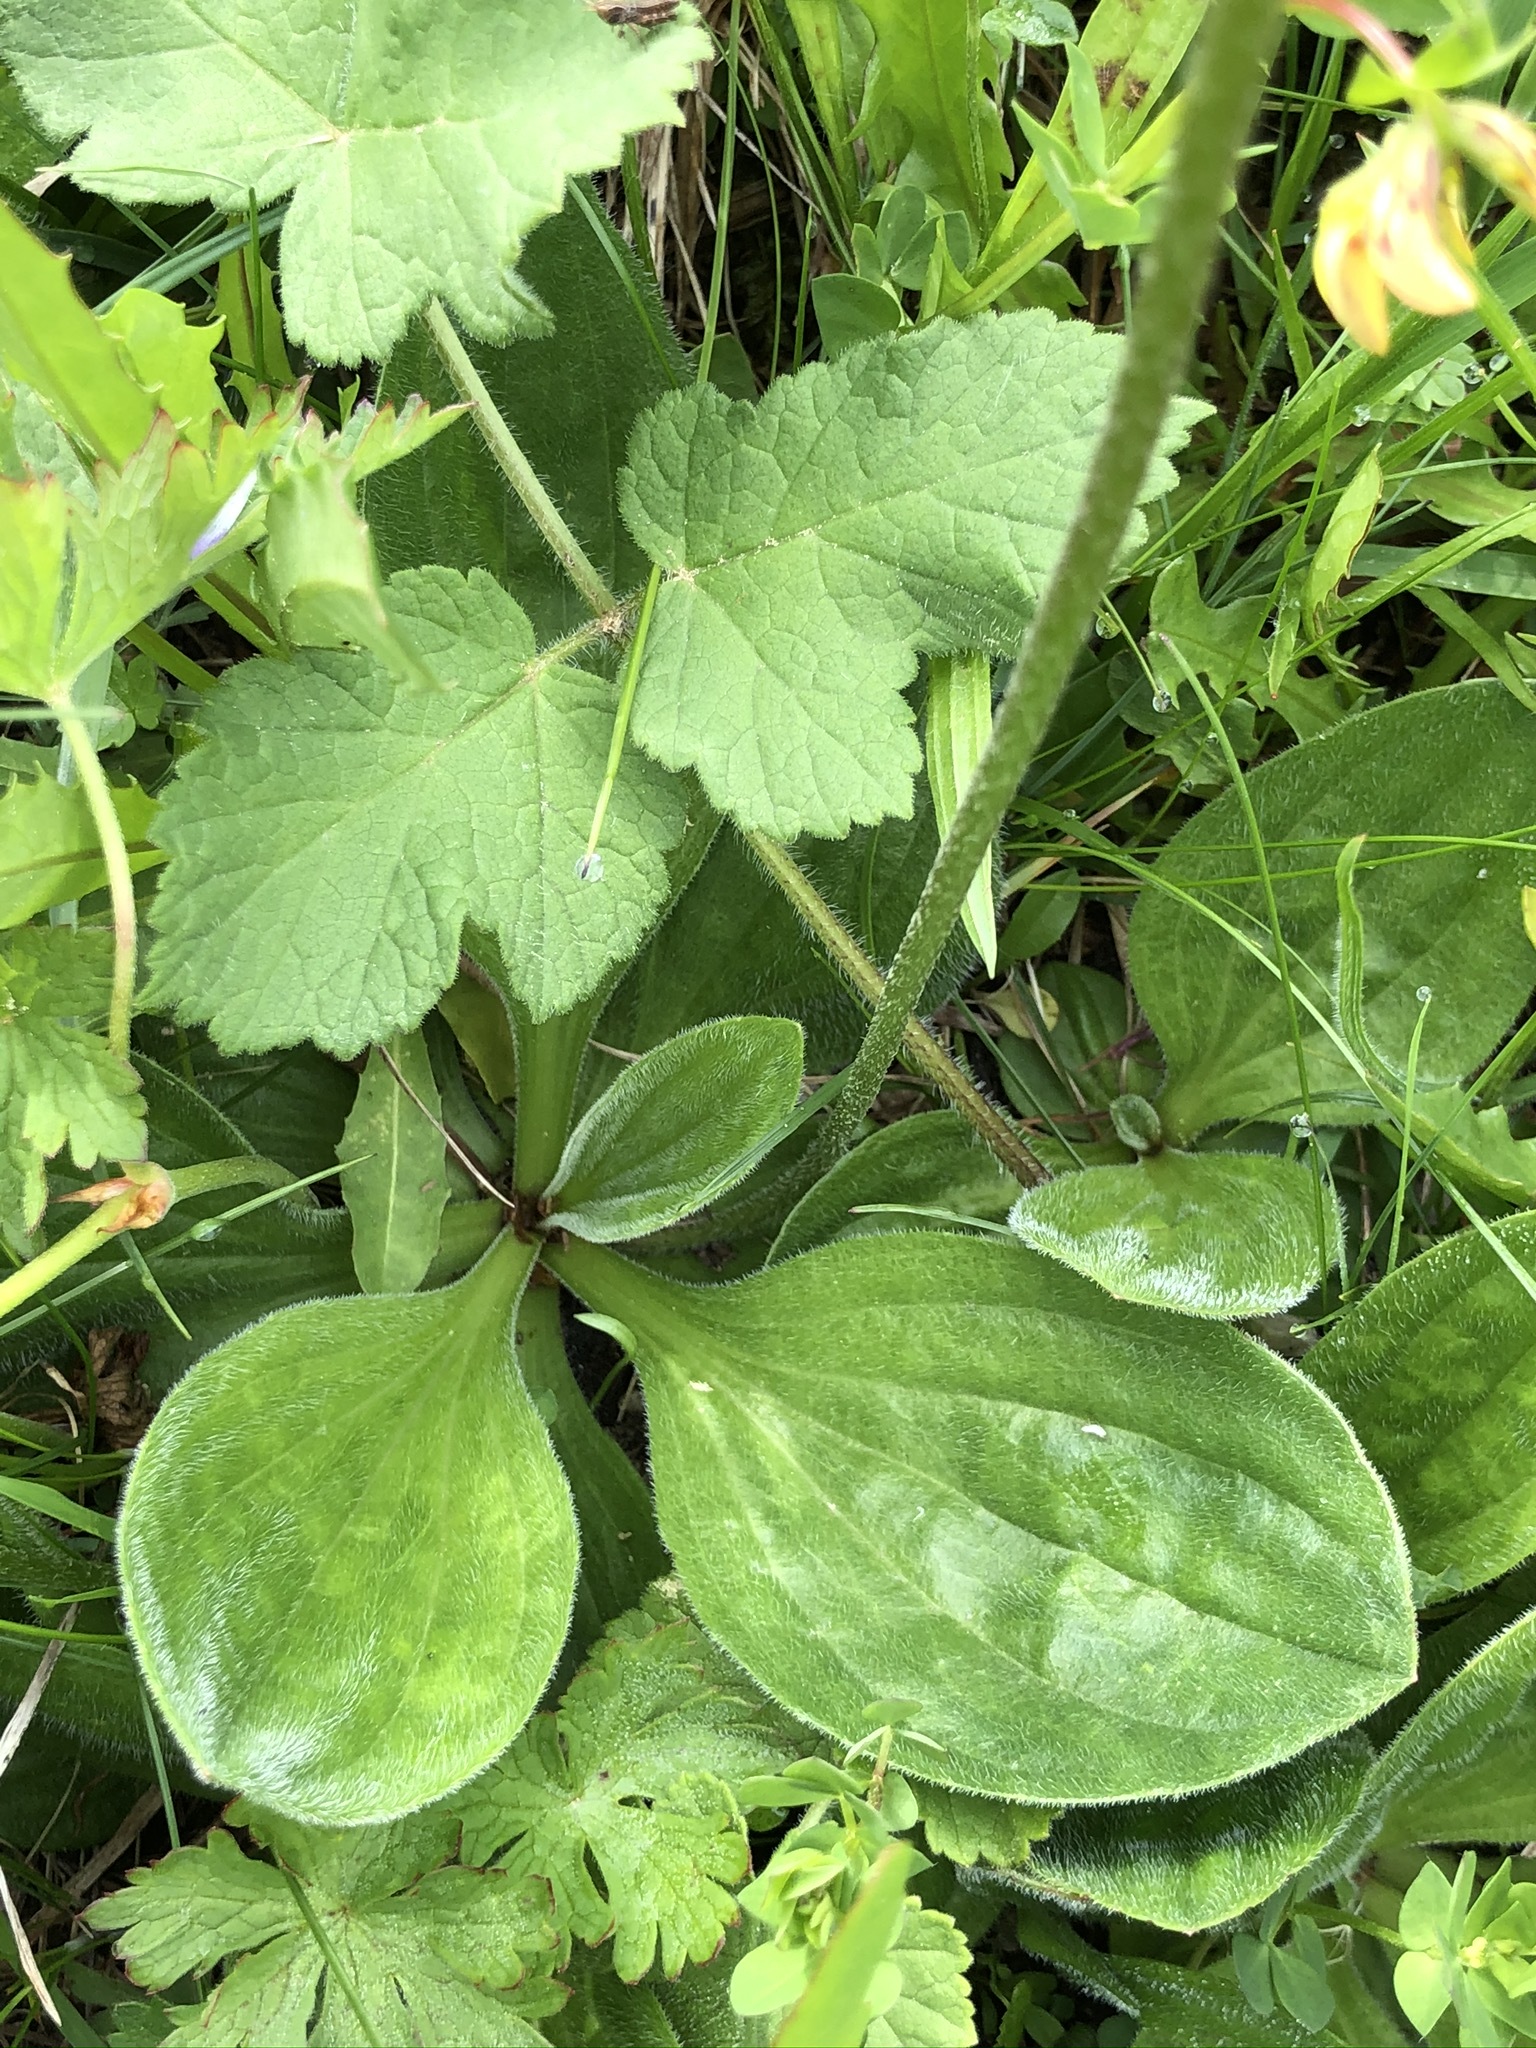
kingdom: Plantae
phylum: Tracheophyta
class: Magnoliopsida
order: Lamiales
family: Plantaginaceae
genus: Plantago
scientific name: Plantago media
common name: Hoary plantain
